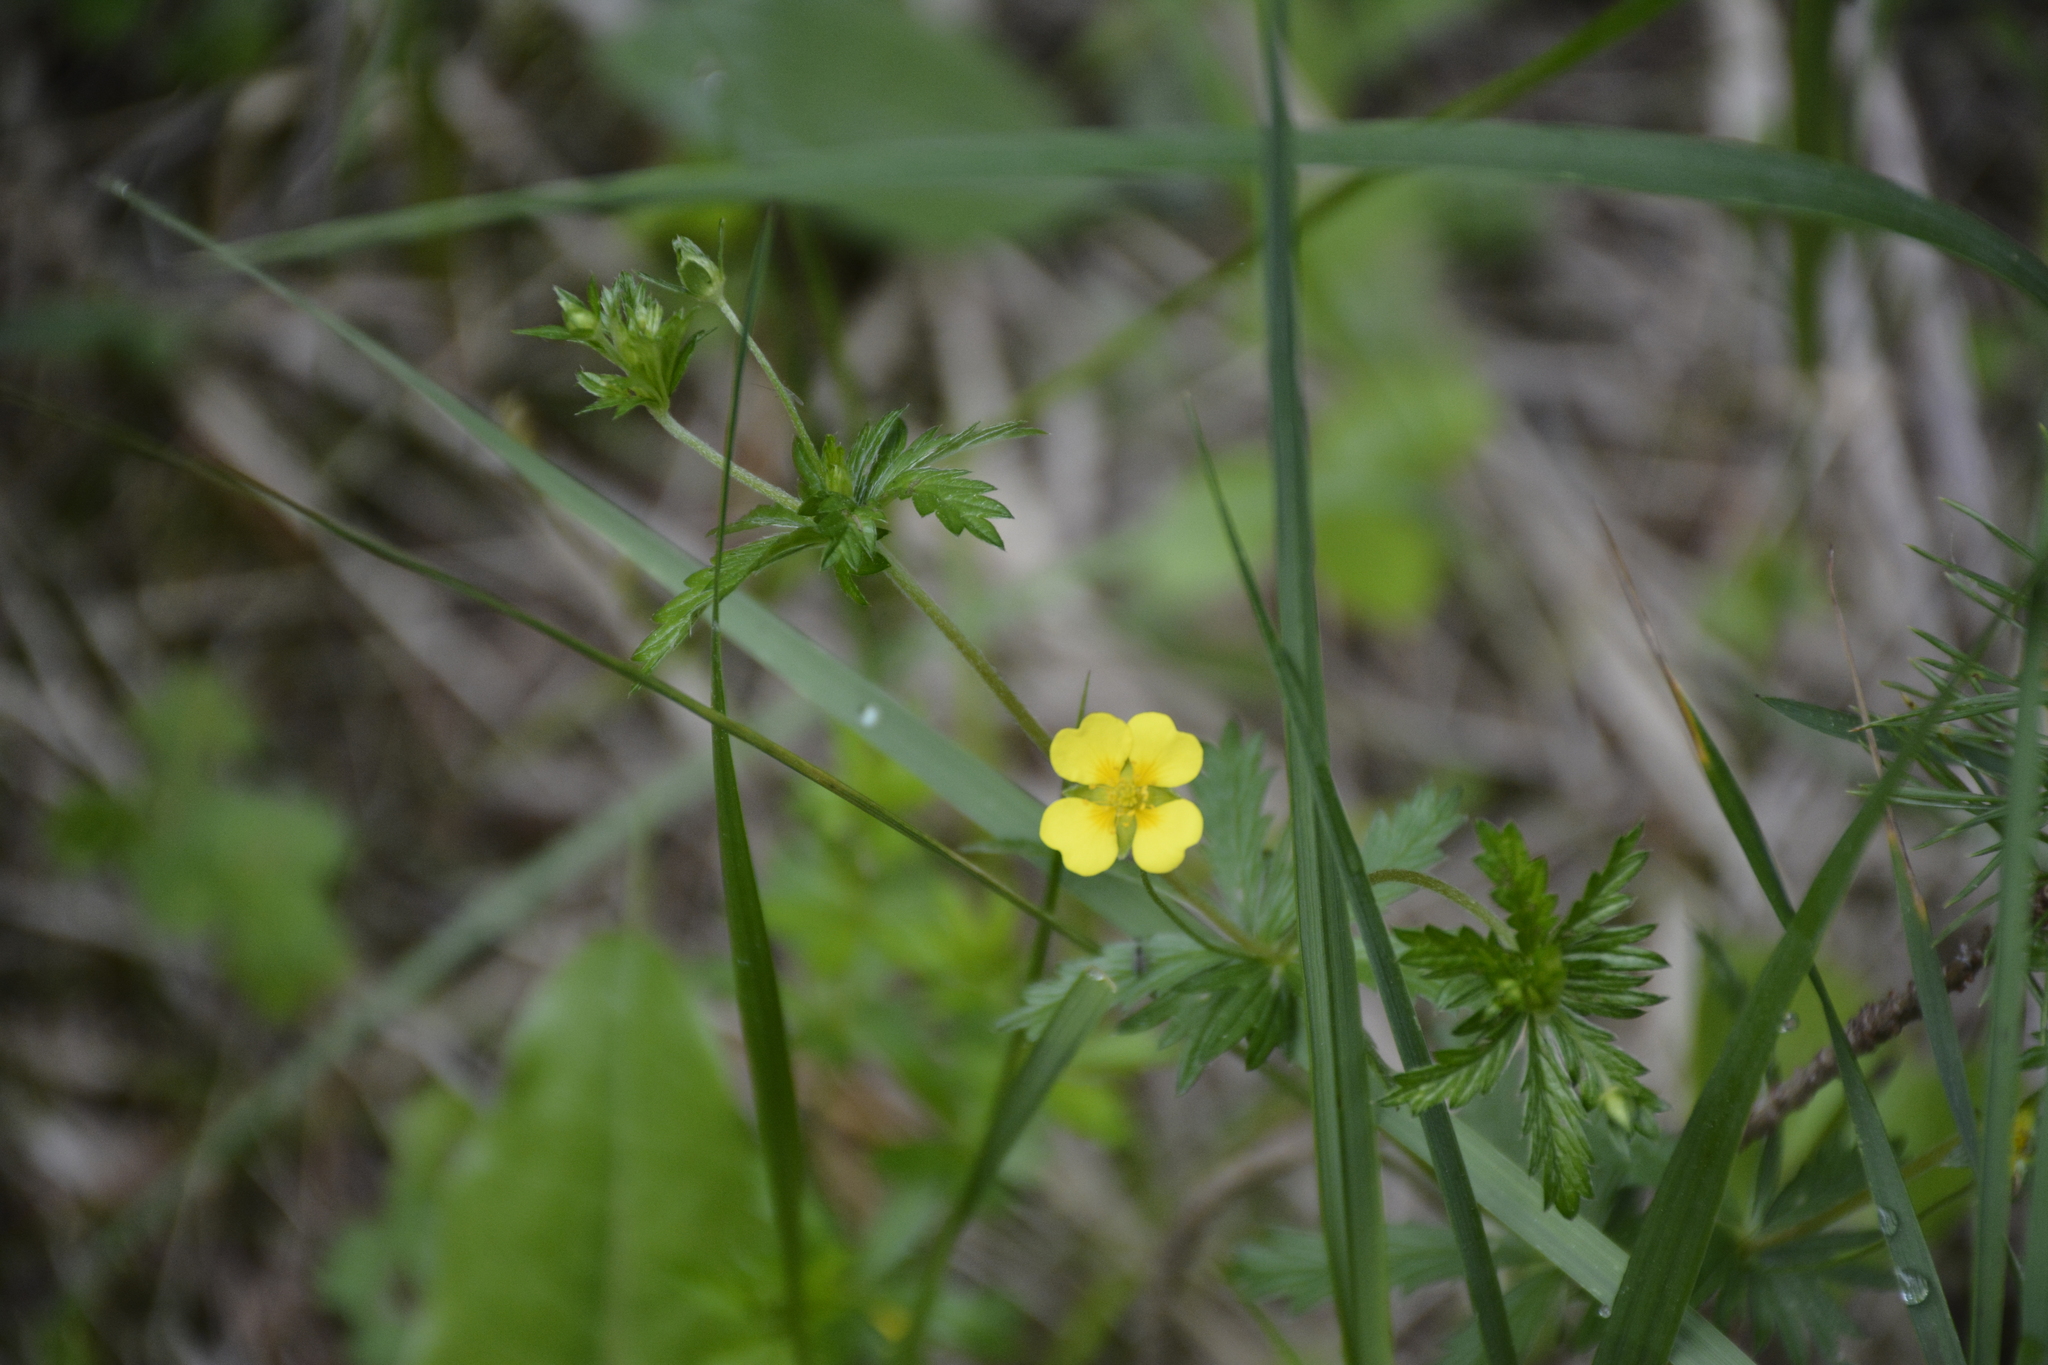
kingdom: Plantae
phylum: Tracheophyta
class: Magnoliopsida
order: Rosales
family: Rosaceae
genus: Potentilla
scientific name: Potentilla erecta
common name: Tormentil
